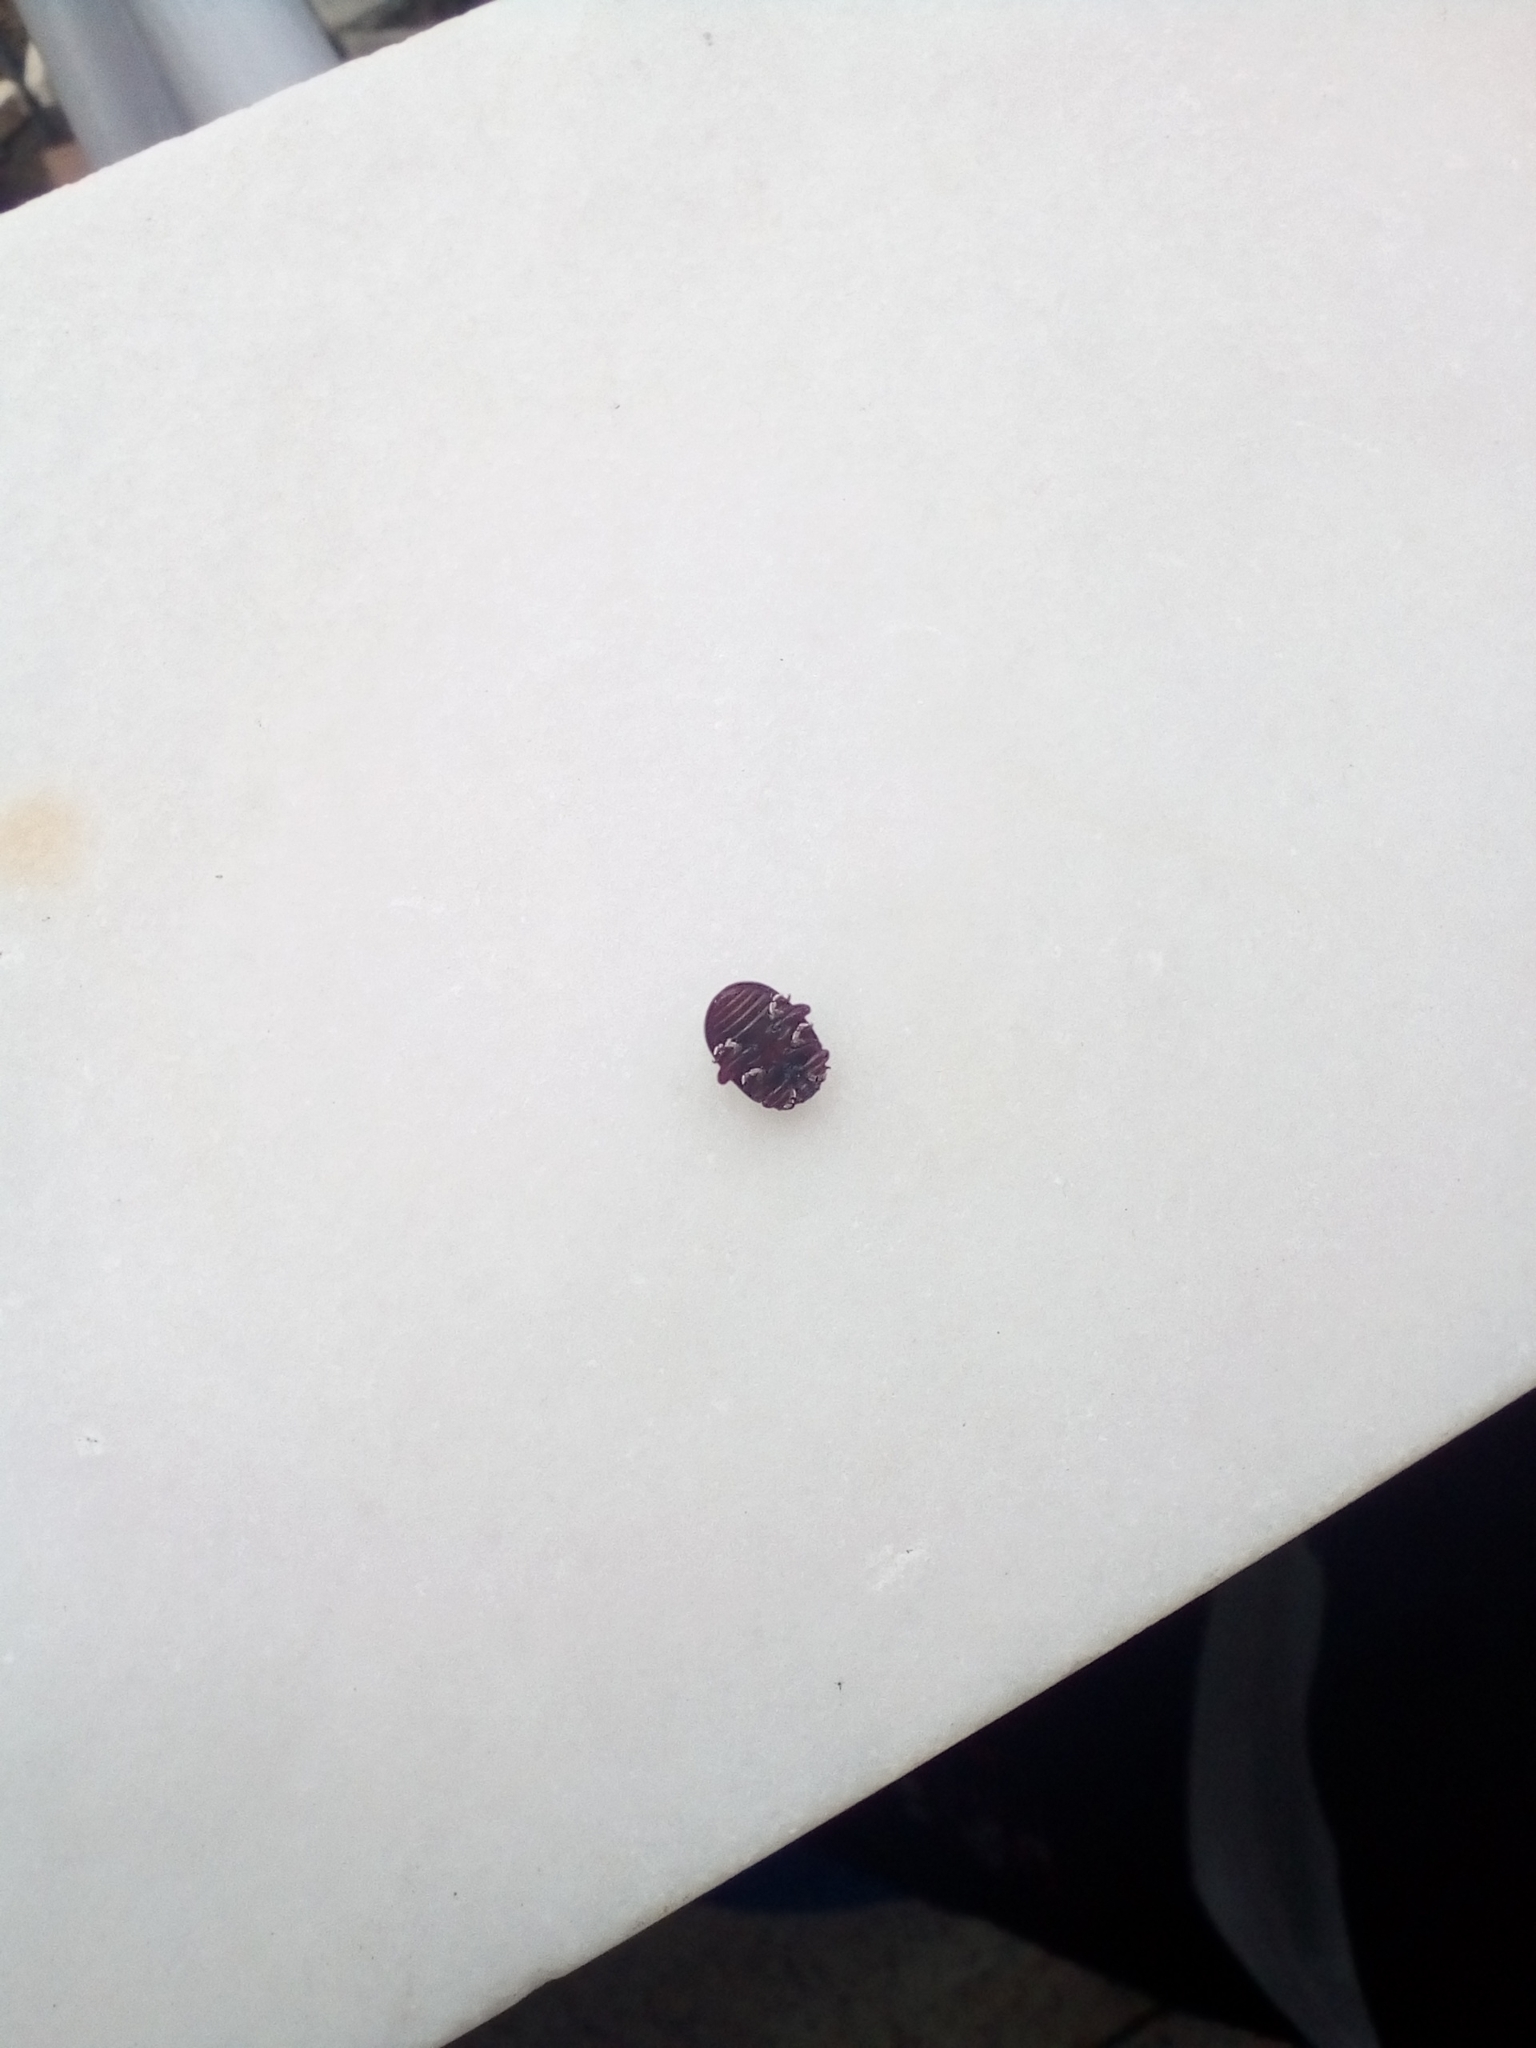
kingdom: Animalia
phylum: Arthropoda
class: Insecta
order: Coleoptera
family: Chrysomelidae
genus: Chrysolina
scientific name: Chrysolina bankii
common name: Leaf beetle
